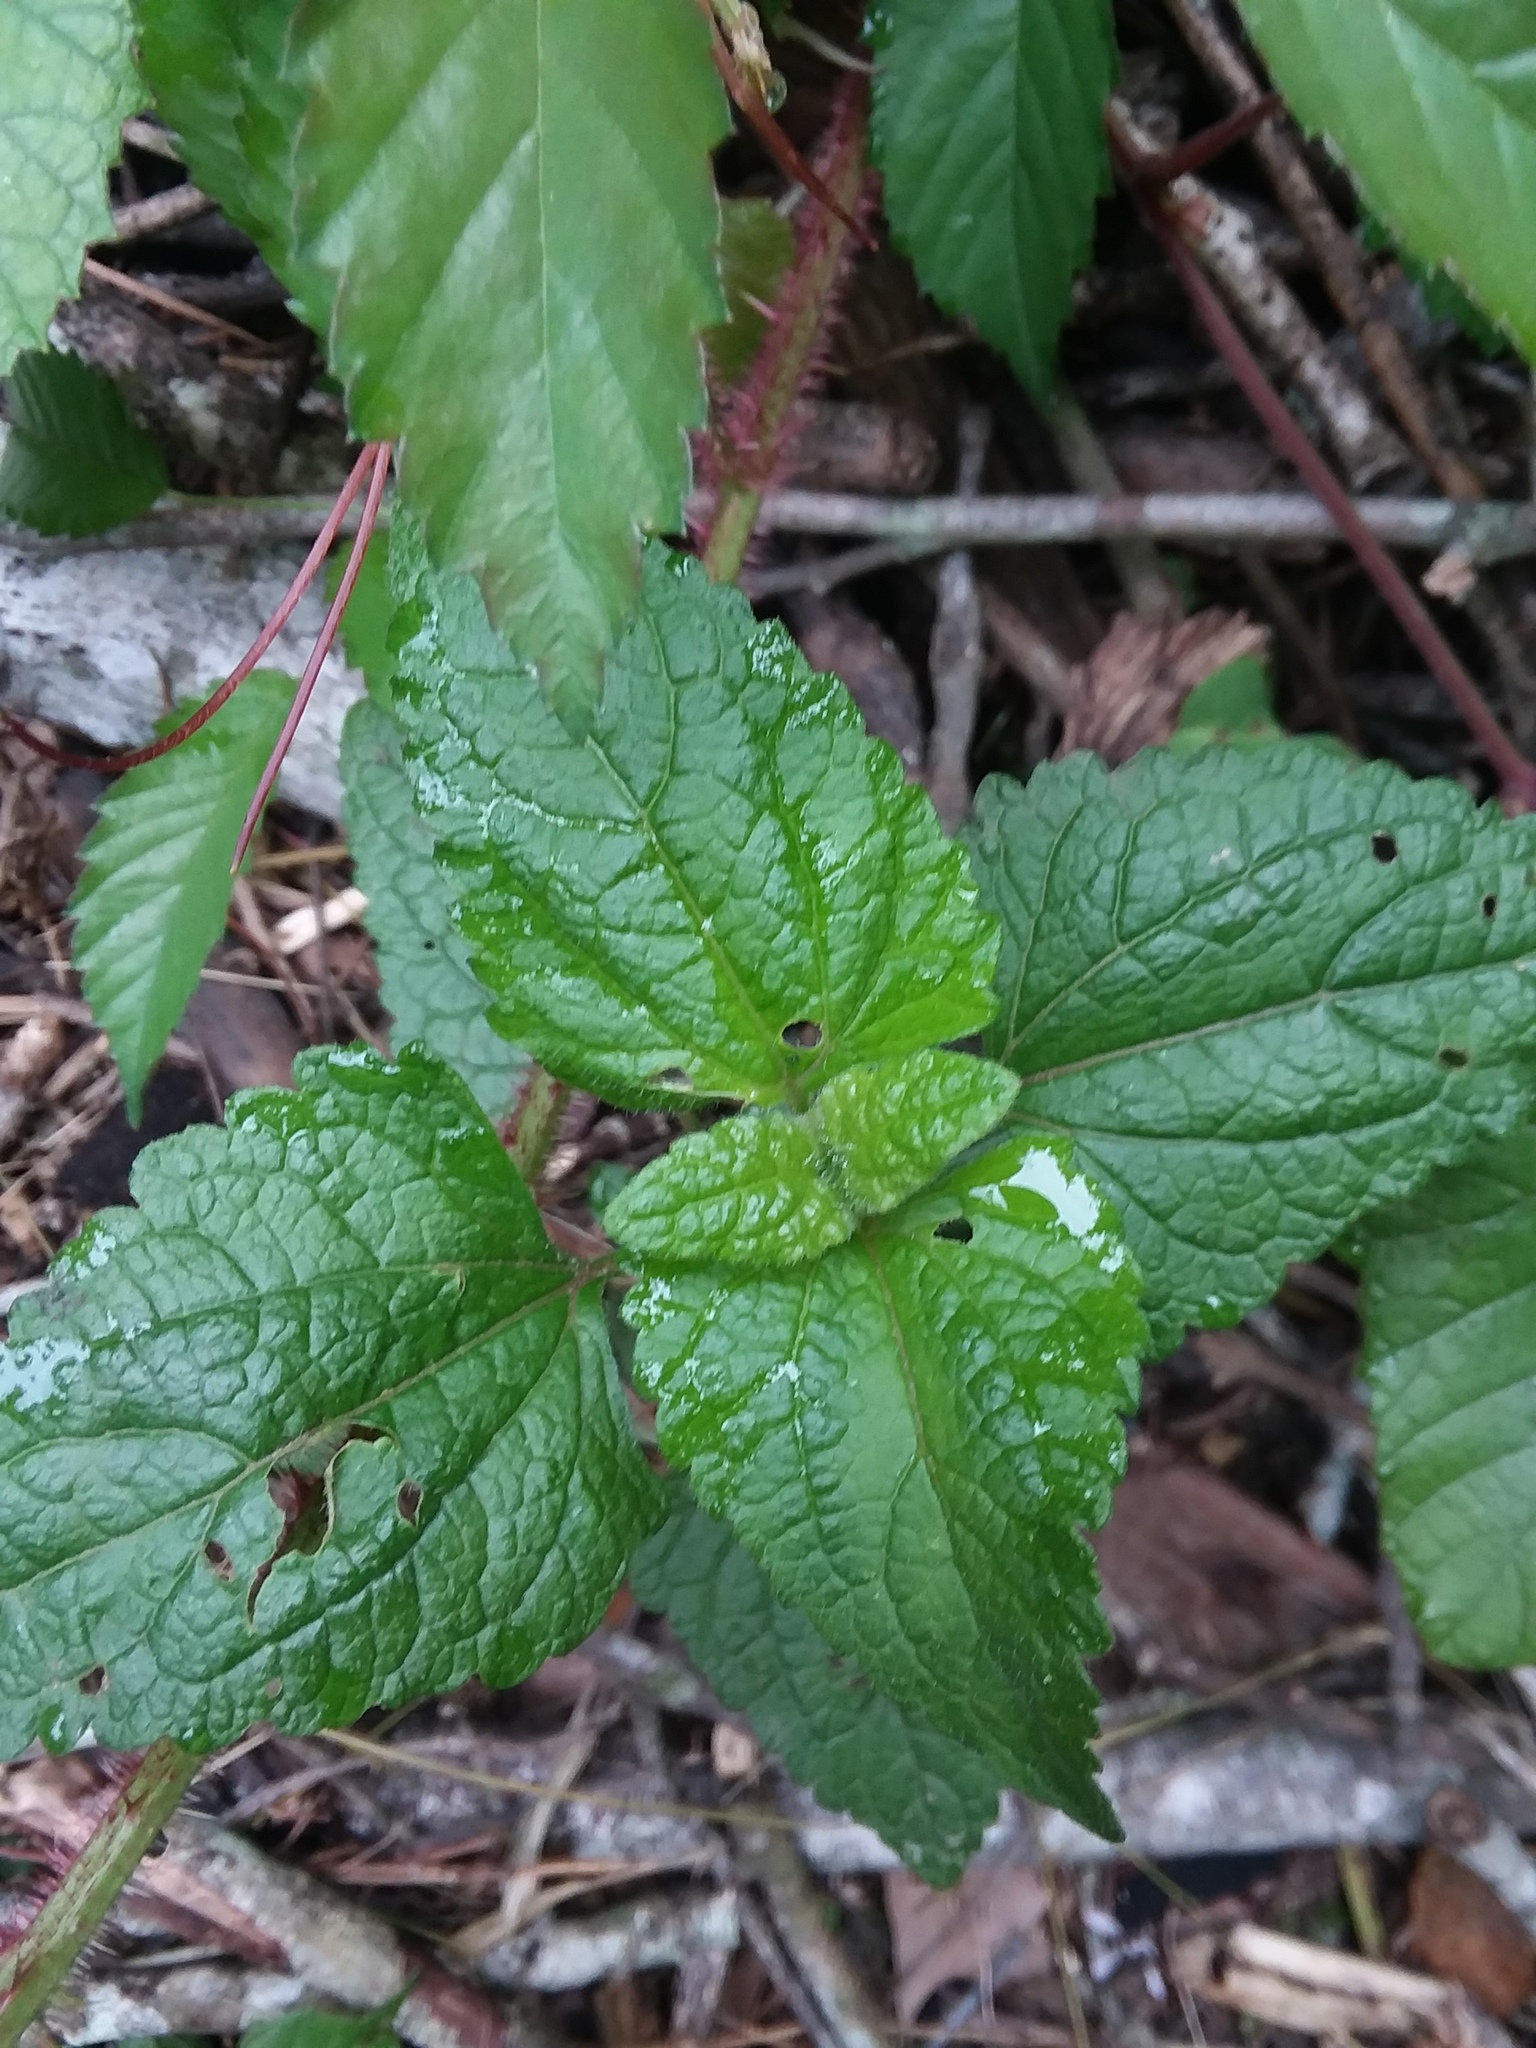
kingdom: Plantae
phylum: Tracheophyta
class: Magnoliopsida
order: Asterales
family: Asteraceae
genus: Conoclinium
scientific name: Conoclinium coelestinum
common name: Blue mistflower
